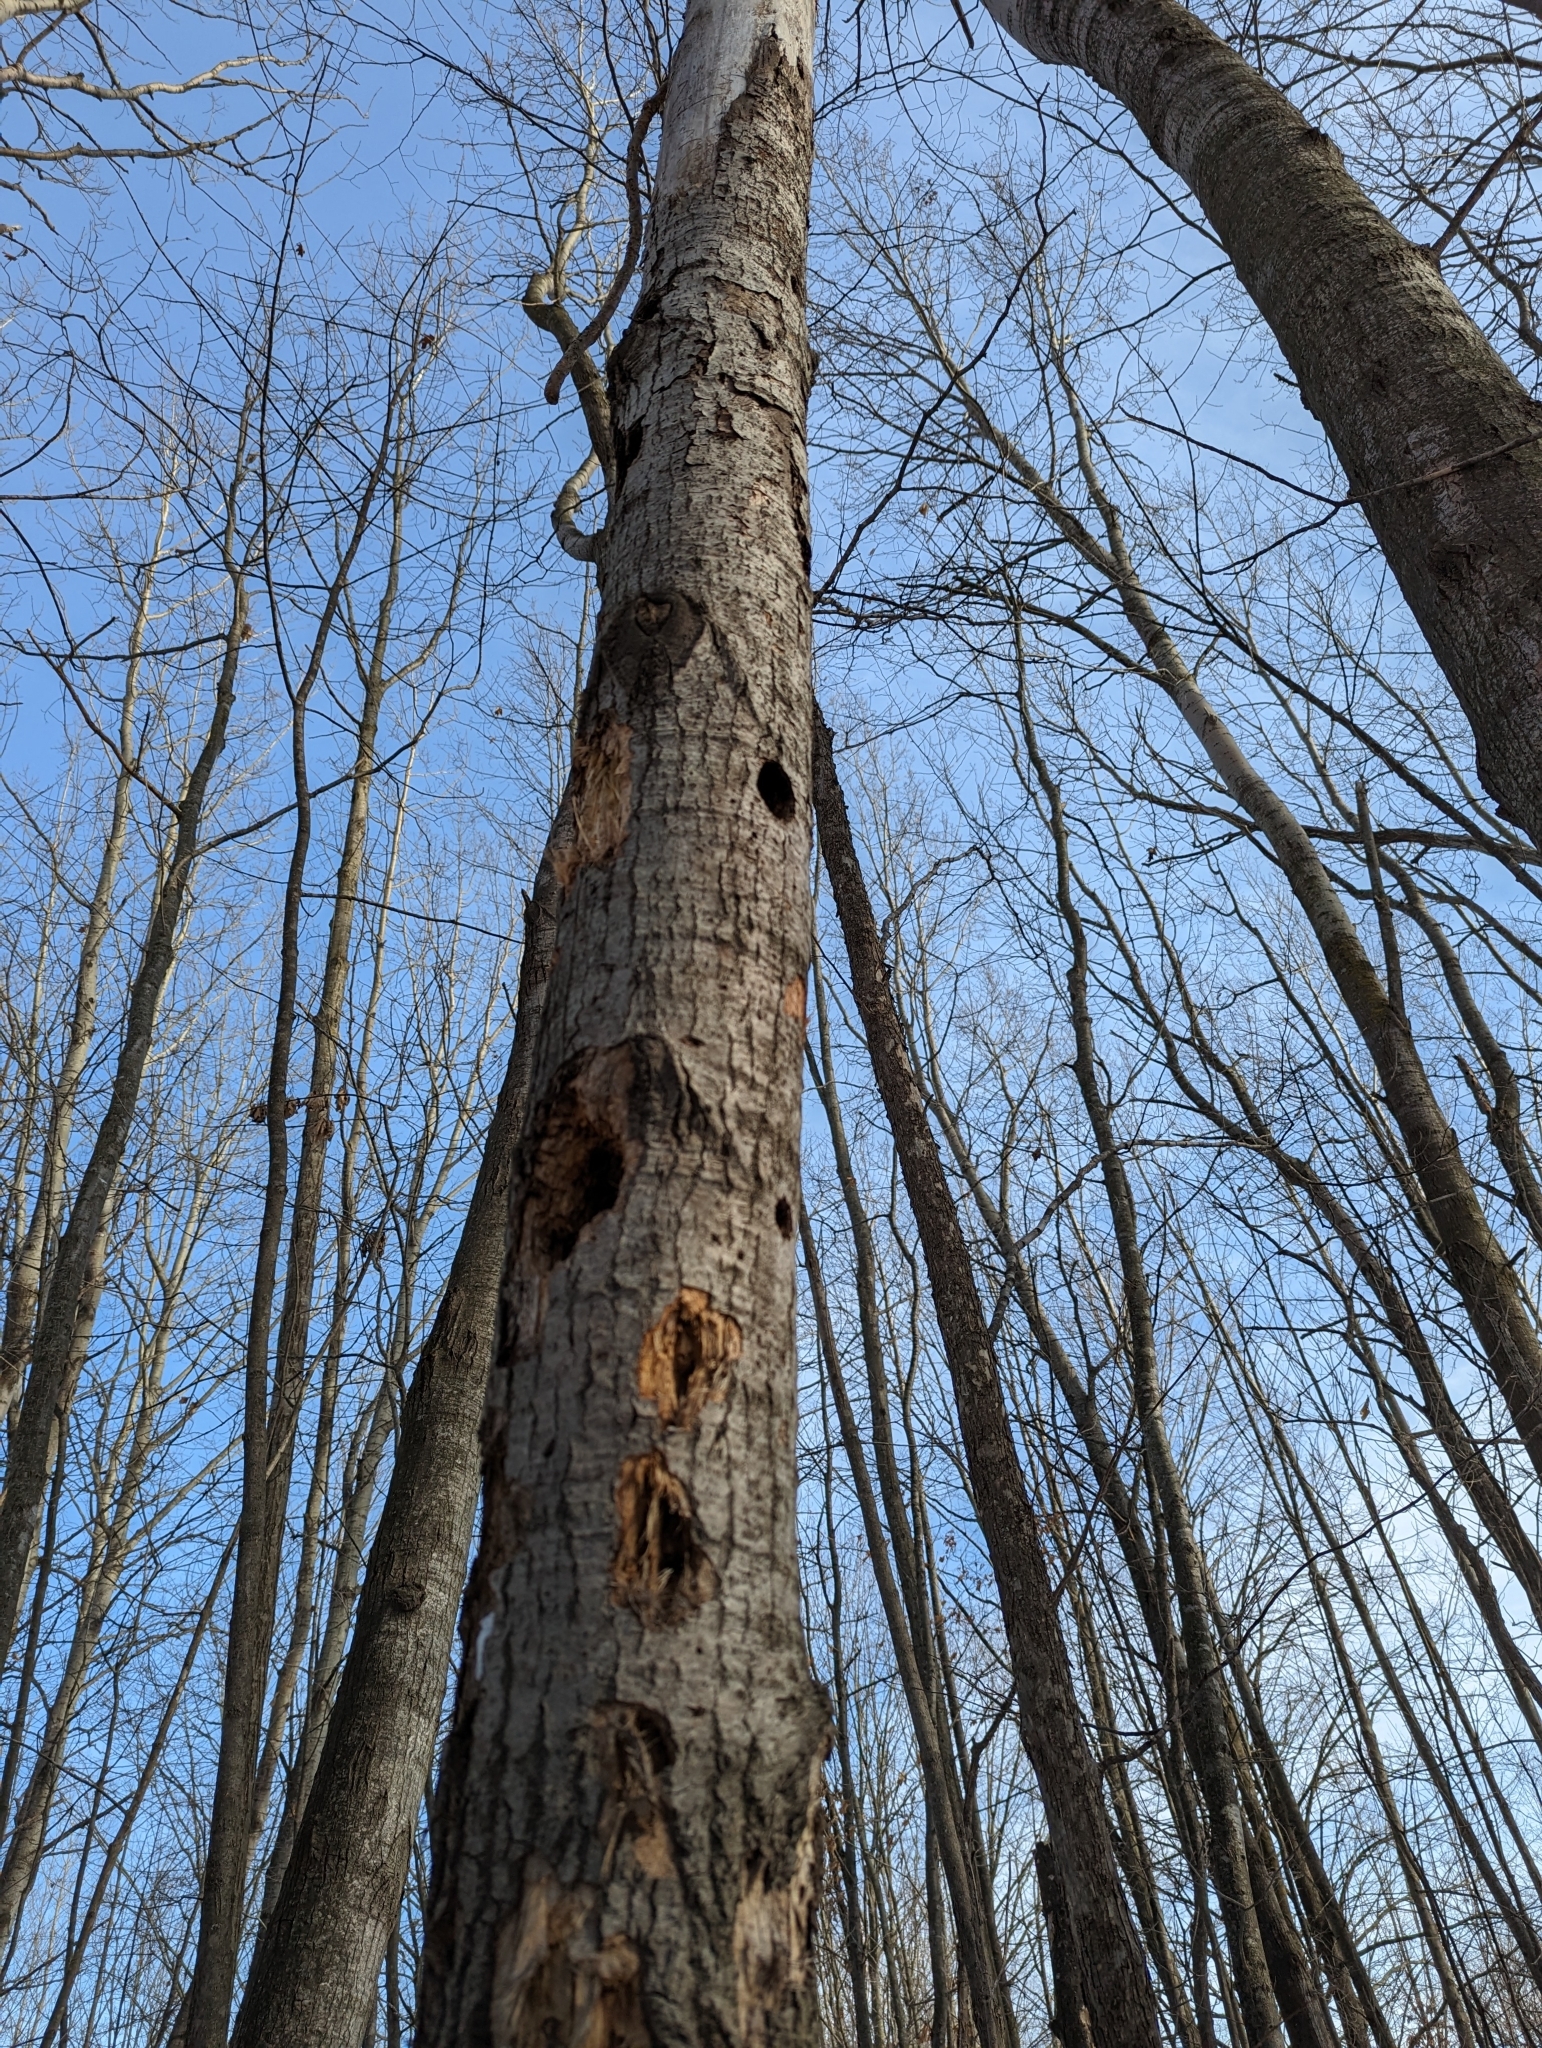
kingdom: Animalia
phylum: Chordata
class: Aves
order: Piciformes
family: Picidae
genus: Dryocopus
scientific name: Dryocopus pileatus
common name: Pileated woodpecker
